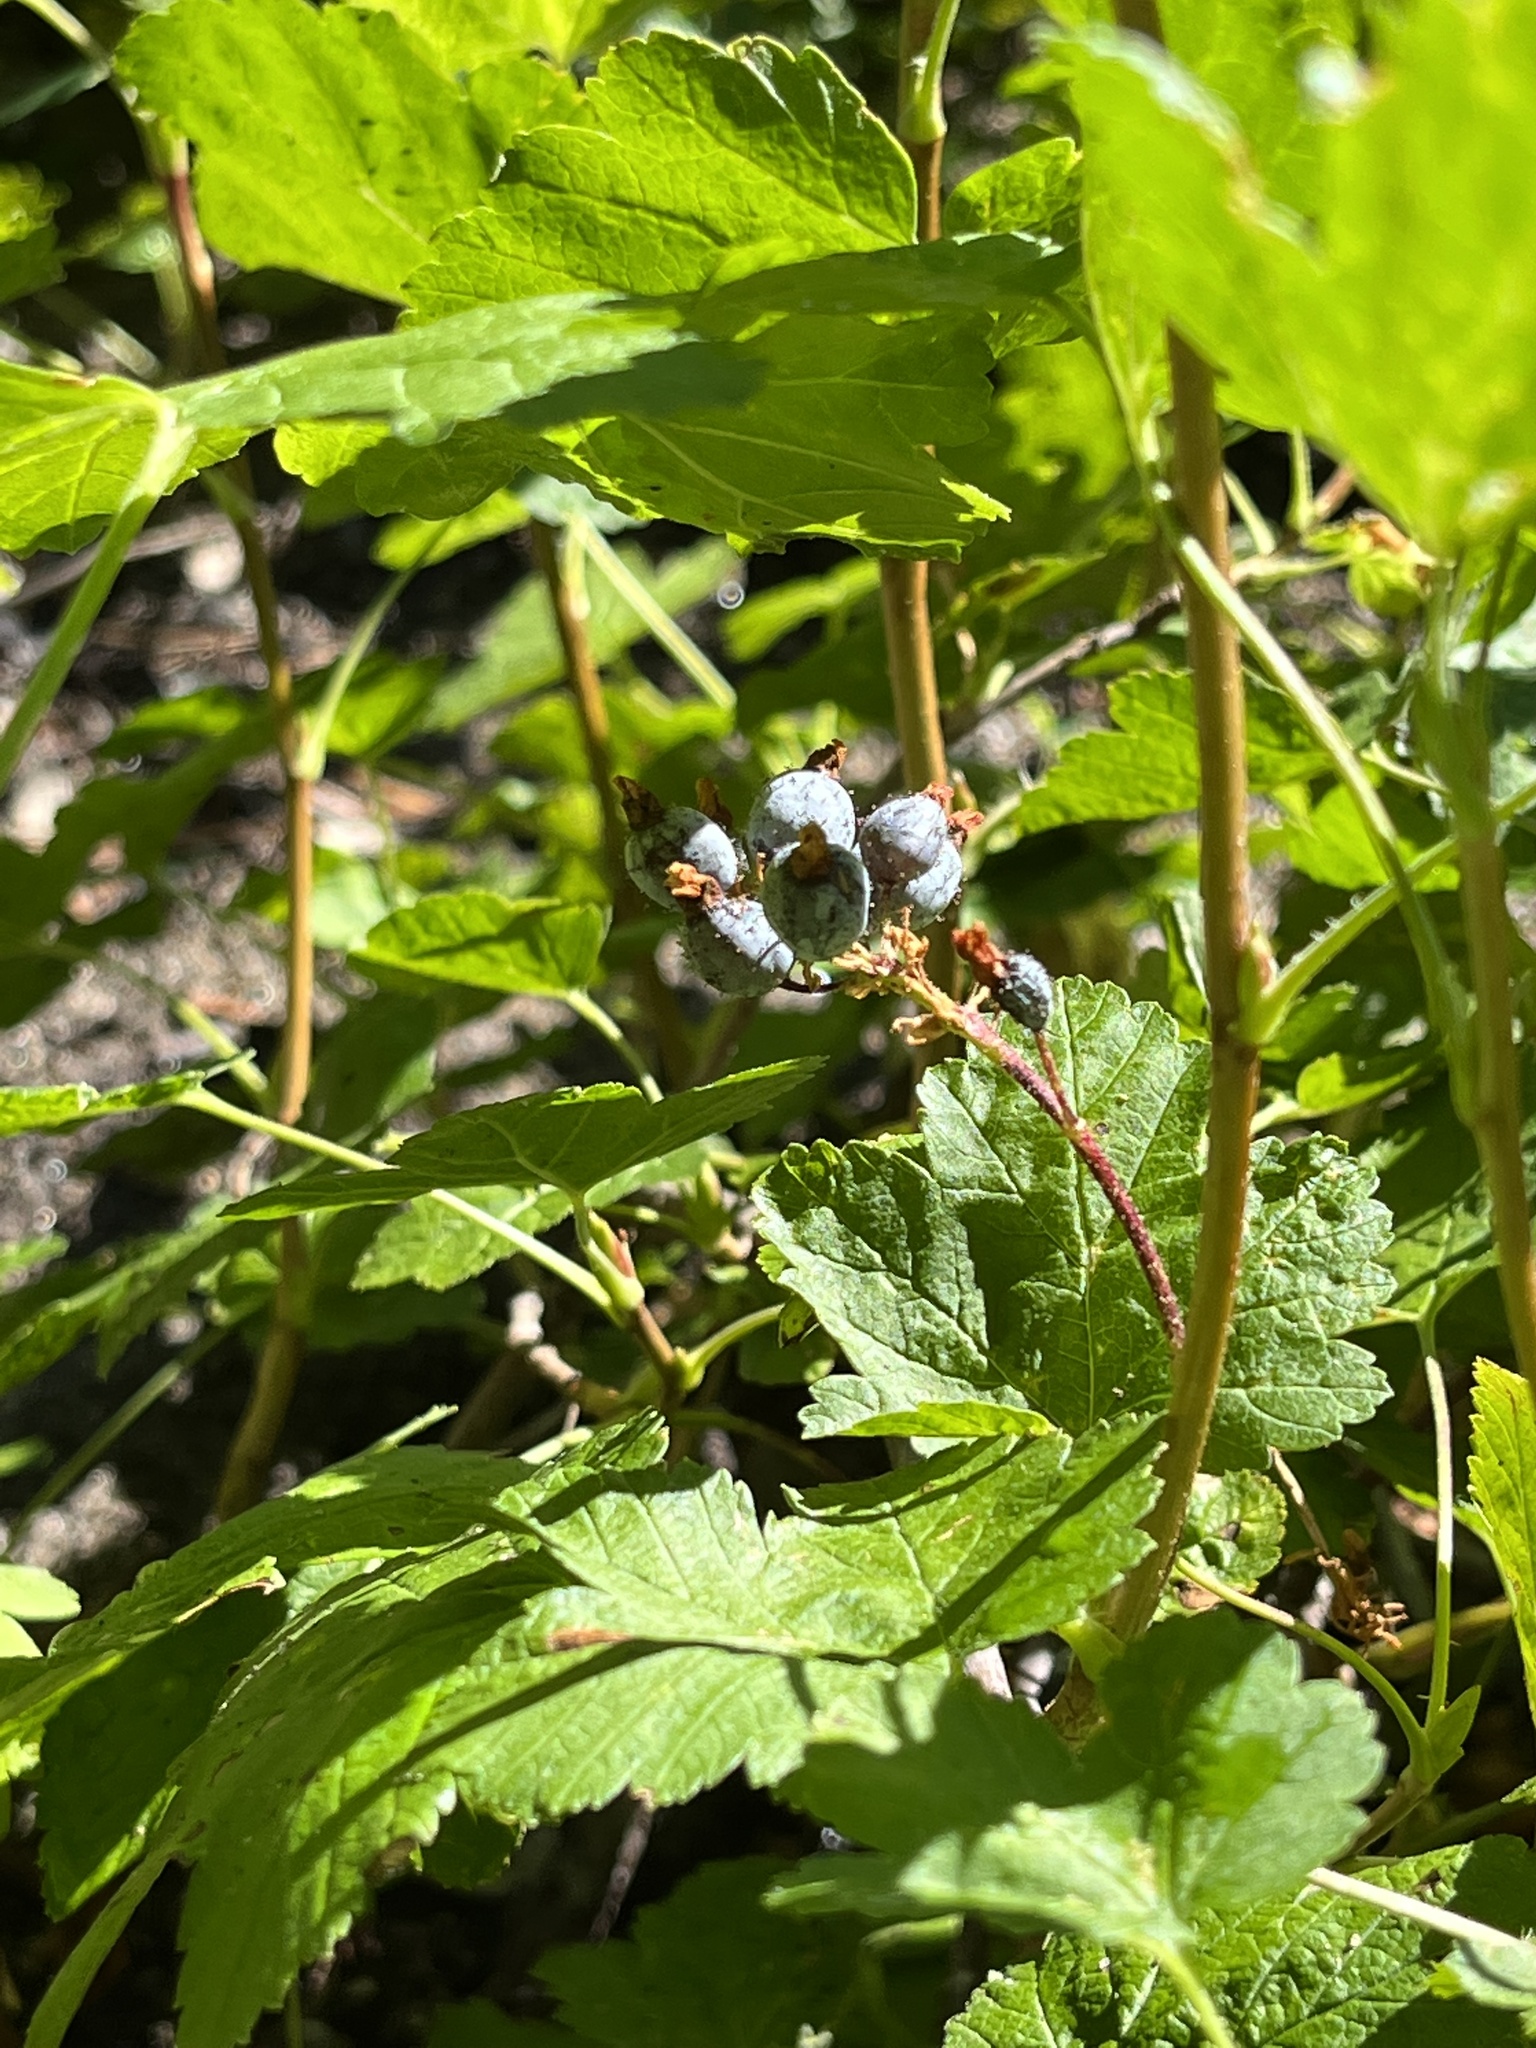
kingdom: Plantae
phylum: Tracheophyta
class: Magnoliopsida
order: Saxifragales
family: Grossulariaceae
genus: Ribes
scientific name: Ribes nevadense
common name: Mountain pink currant
